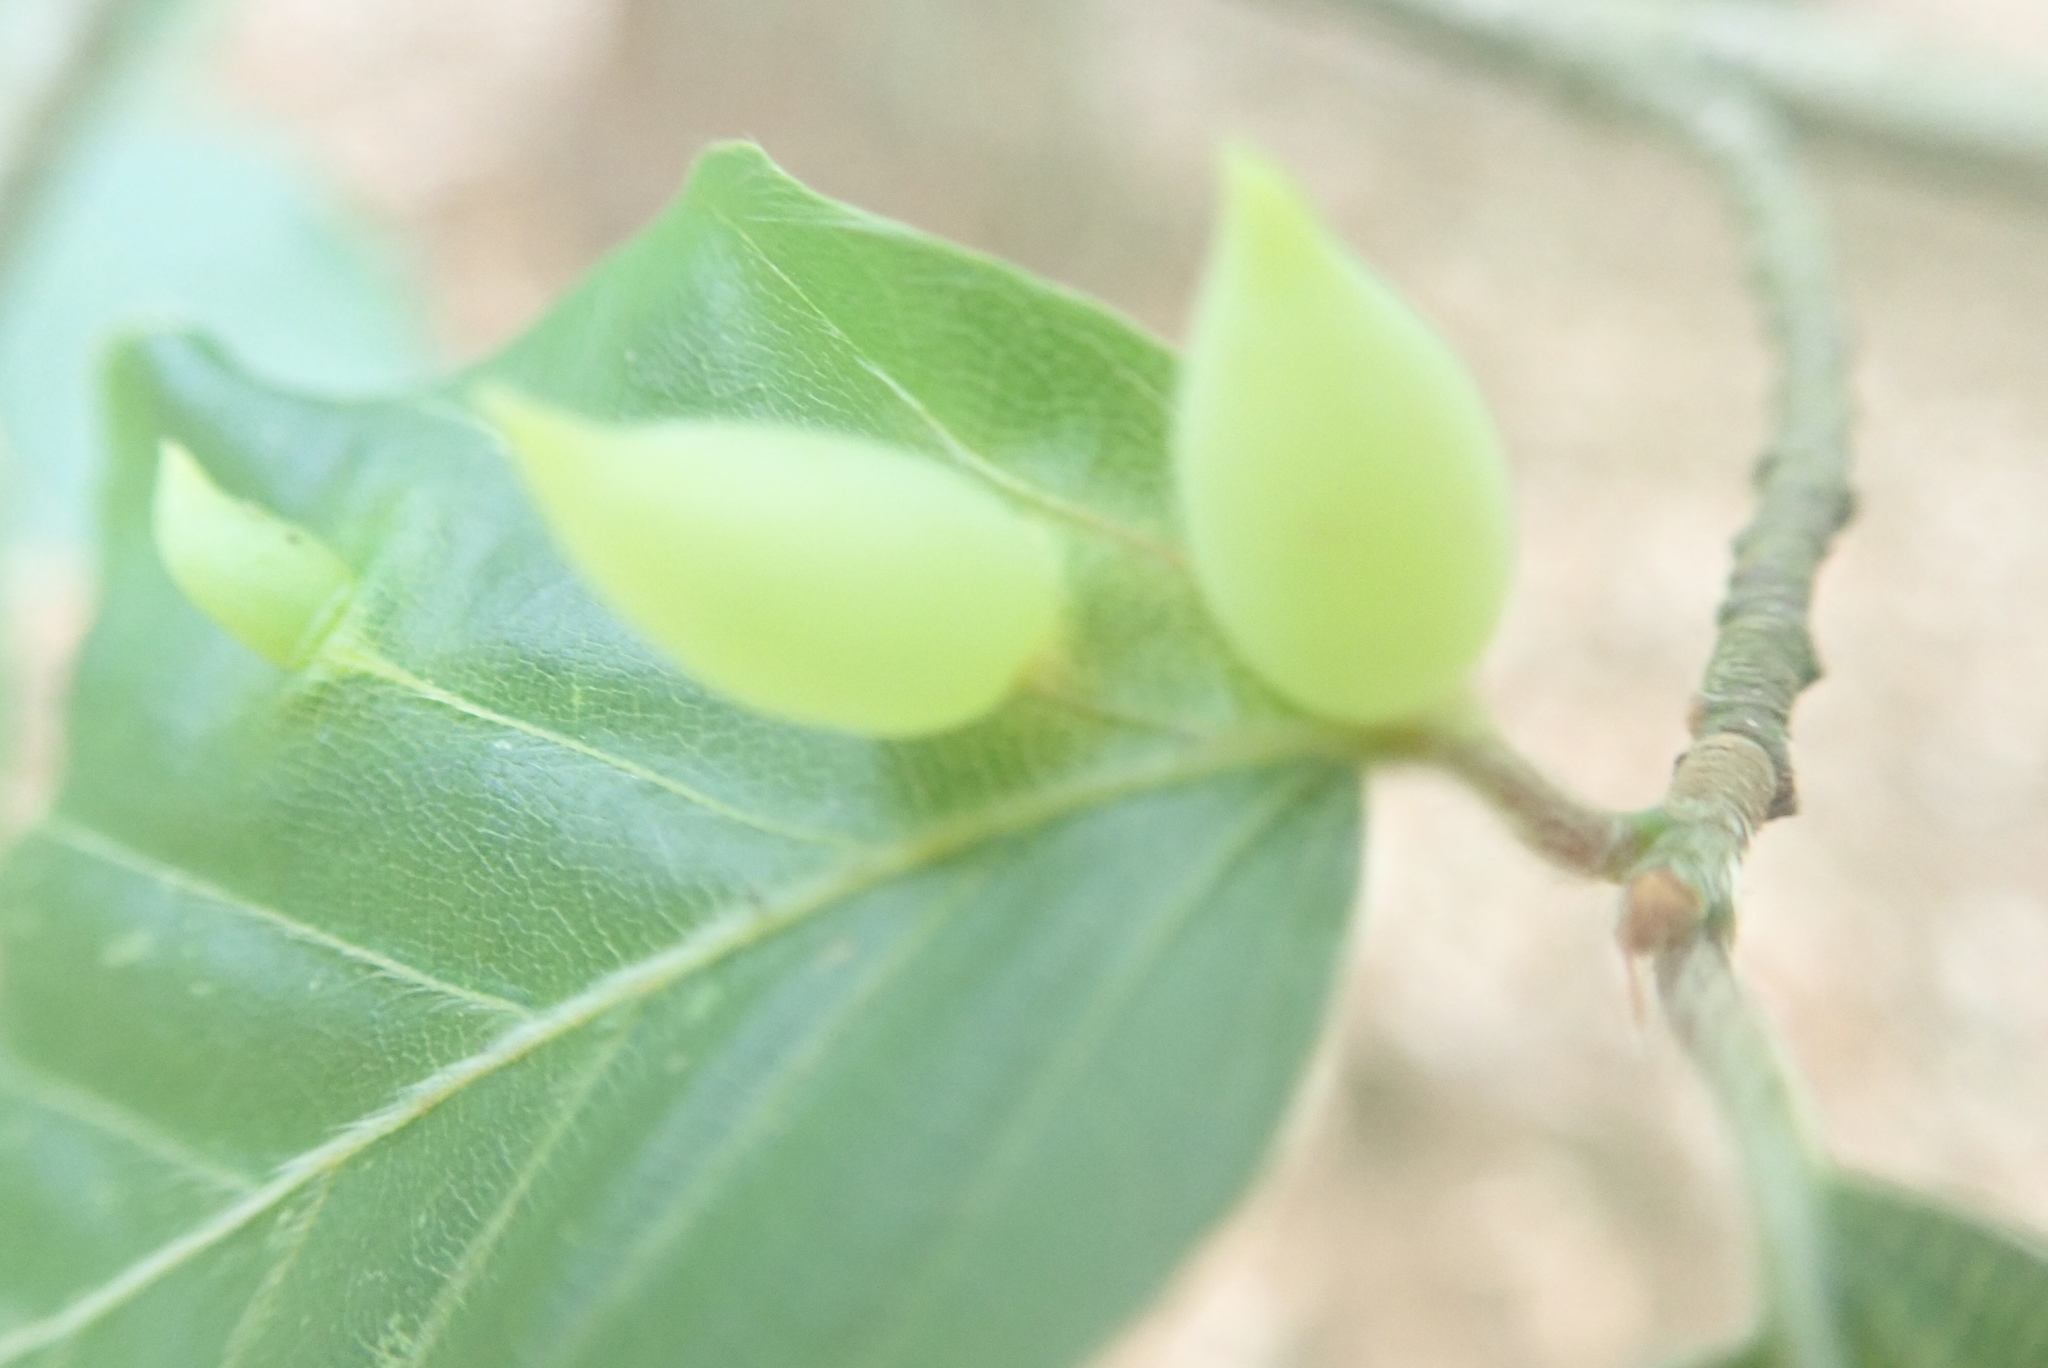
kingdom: Animalia
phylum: Arthropoda
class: Insecta
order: Diptera
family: Cecidomyiidae
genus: Mikiola
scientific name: Mikiola fagi
